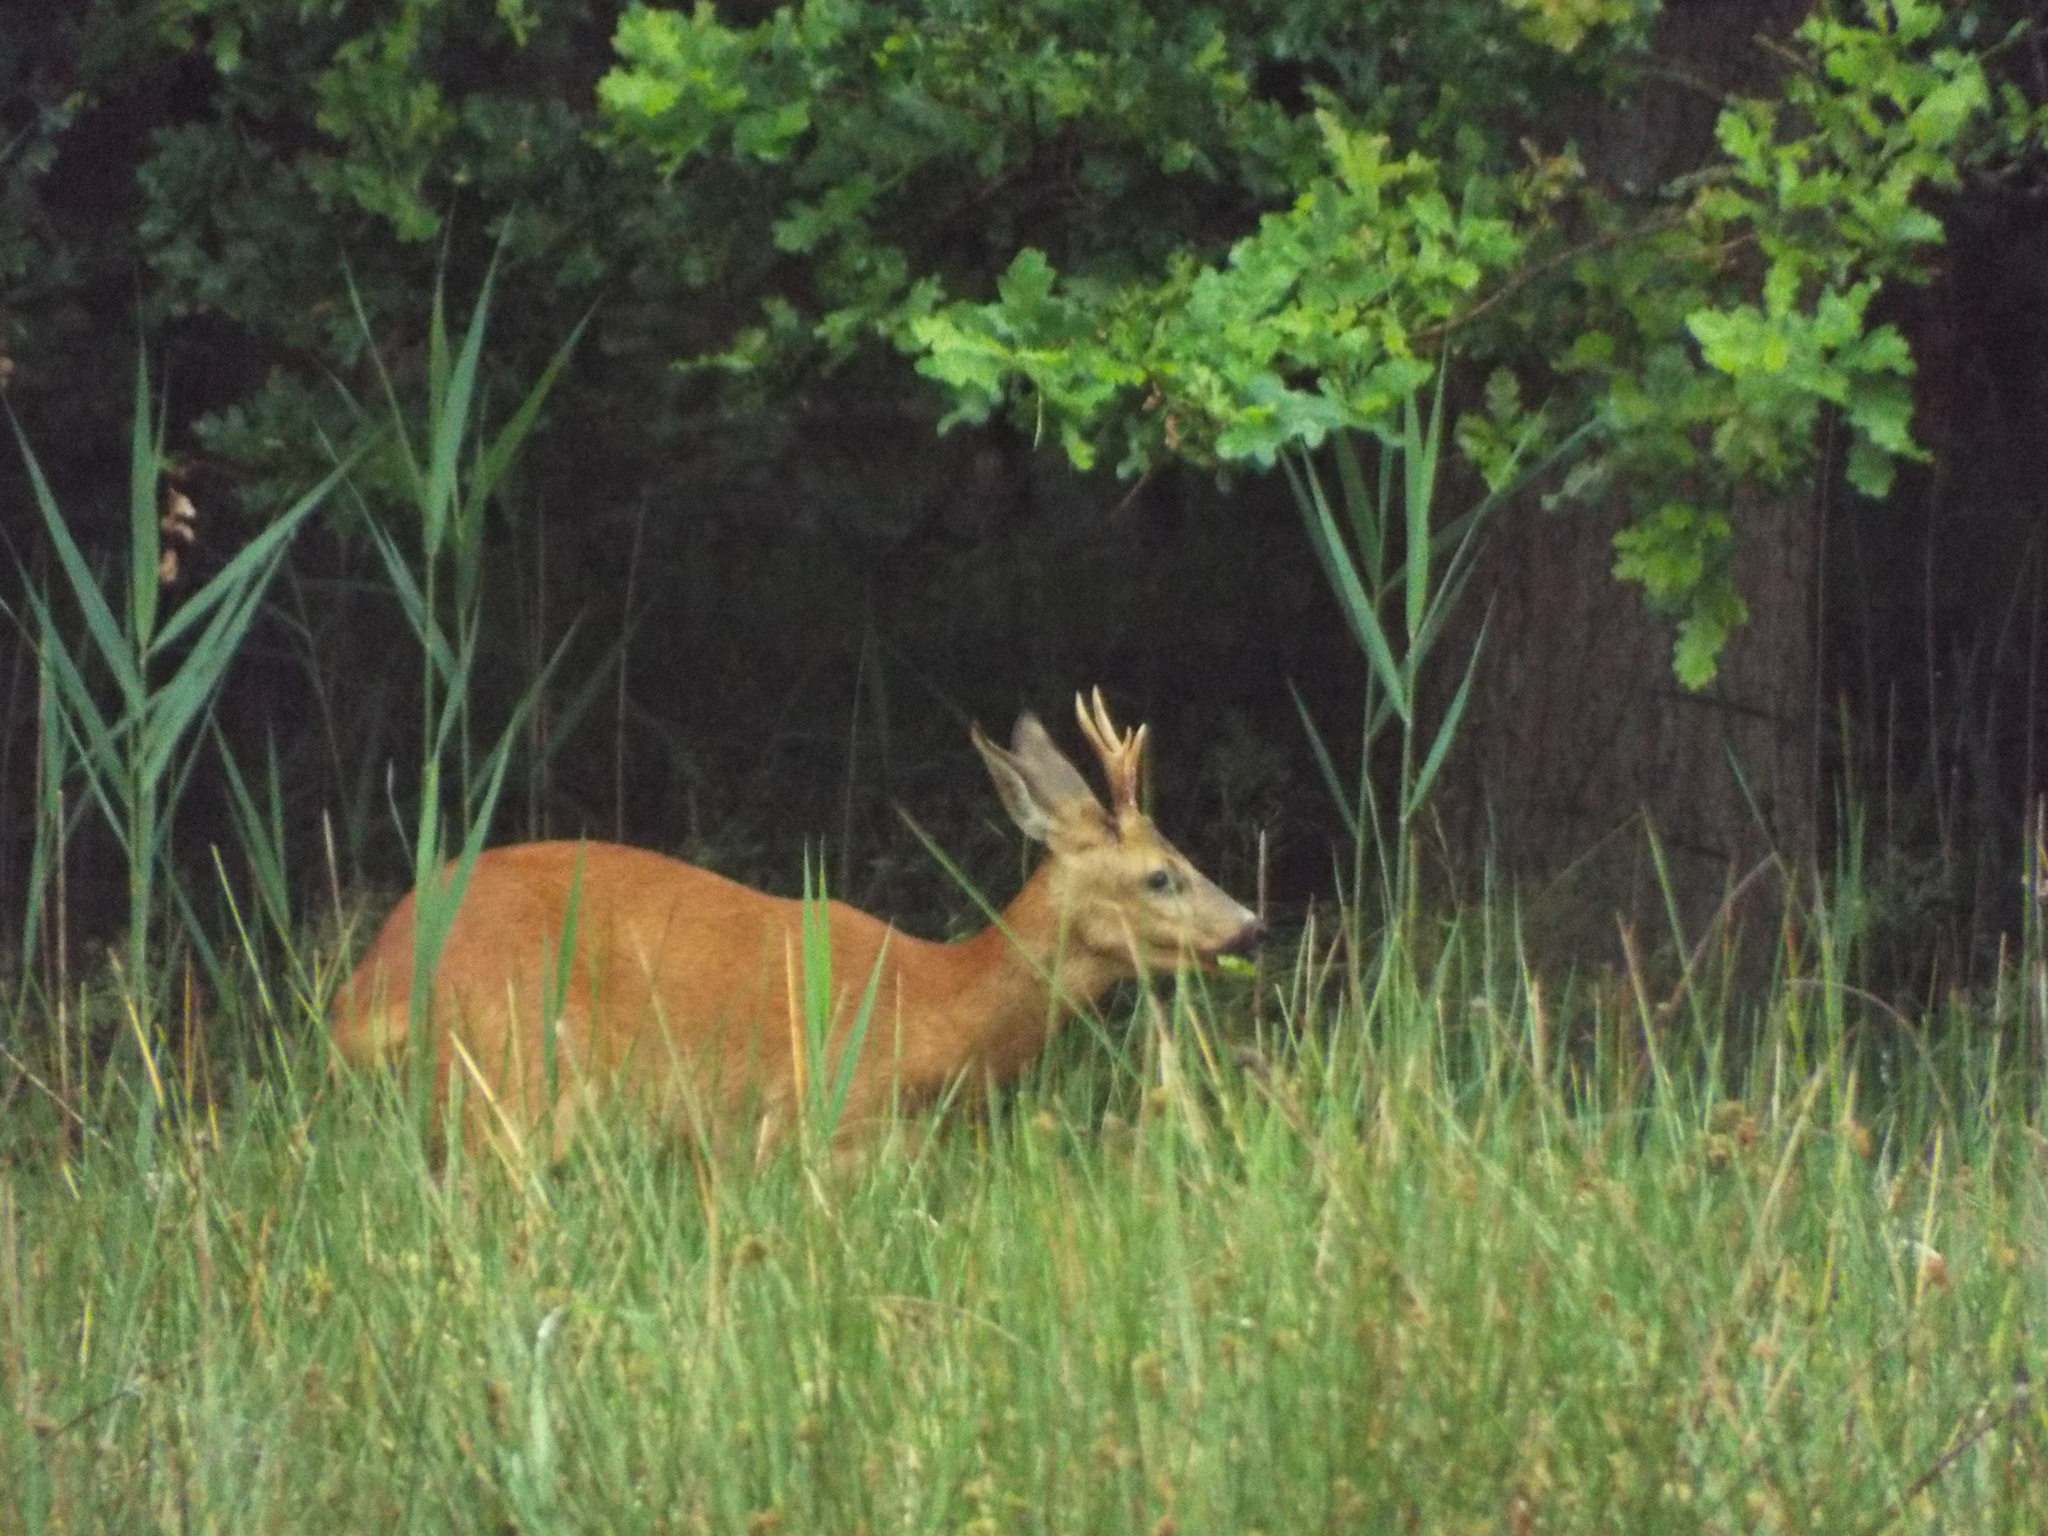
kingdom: Animalia
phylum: Chordata
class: Mammalia
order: Artiodactyla
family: Cervidae
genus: Capreolus
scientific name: Capreolus capreolus
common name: Western roe deer
